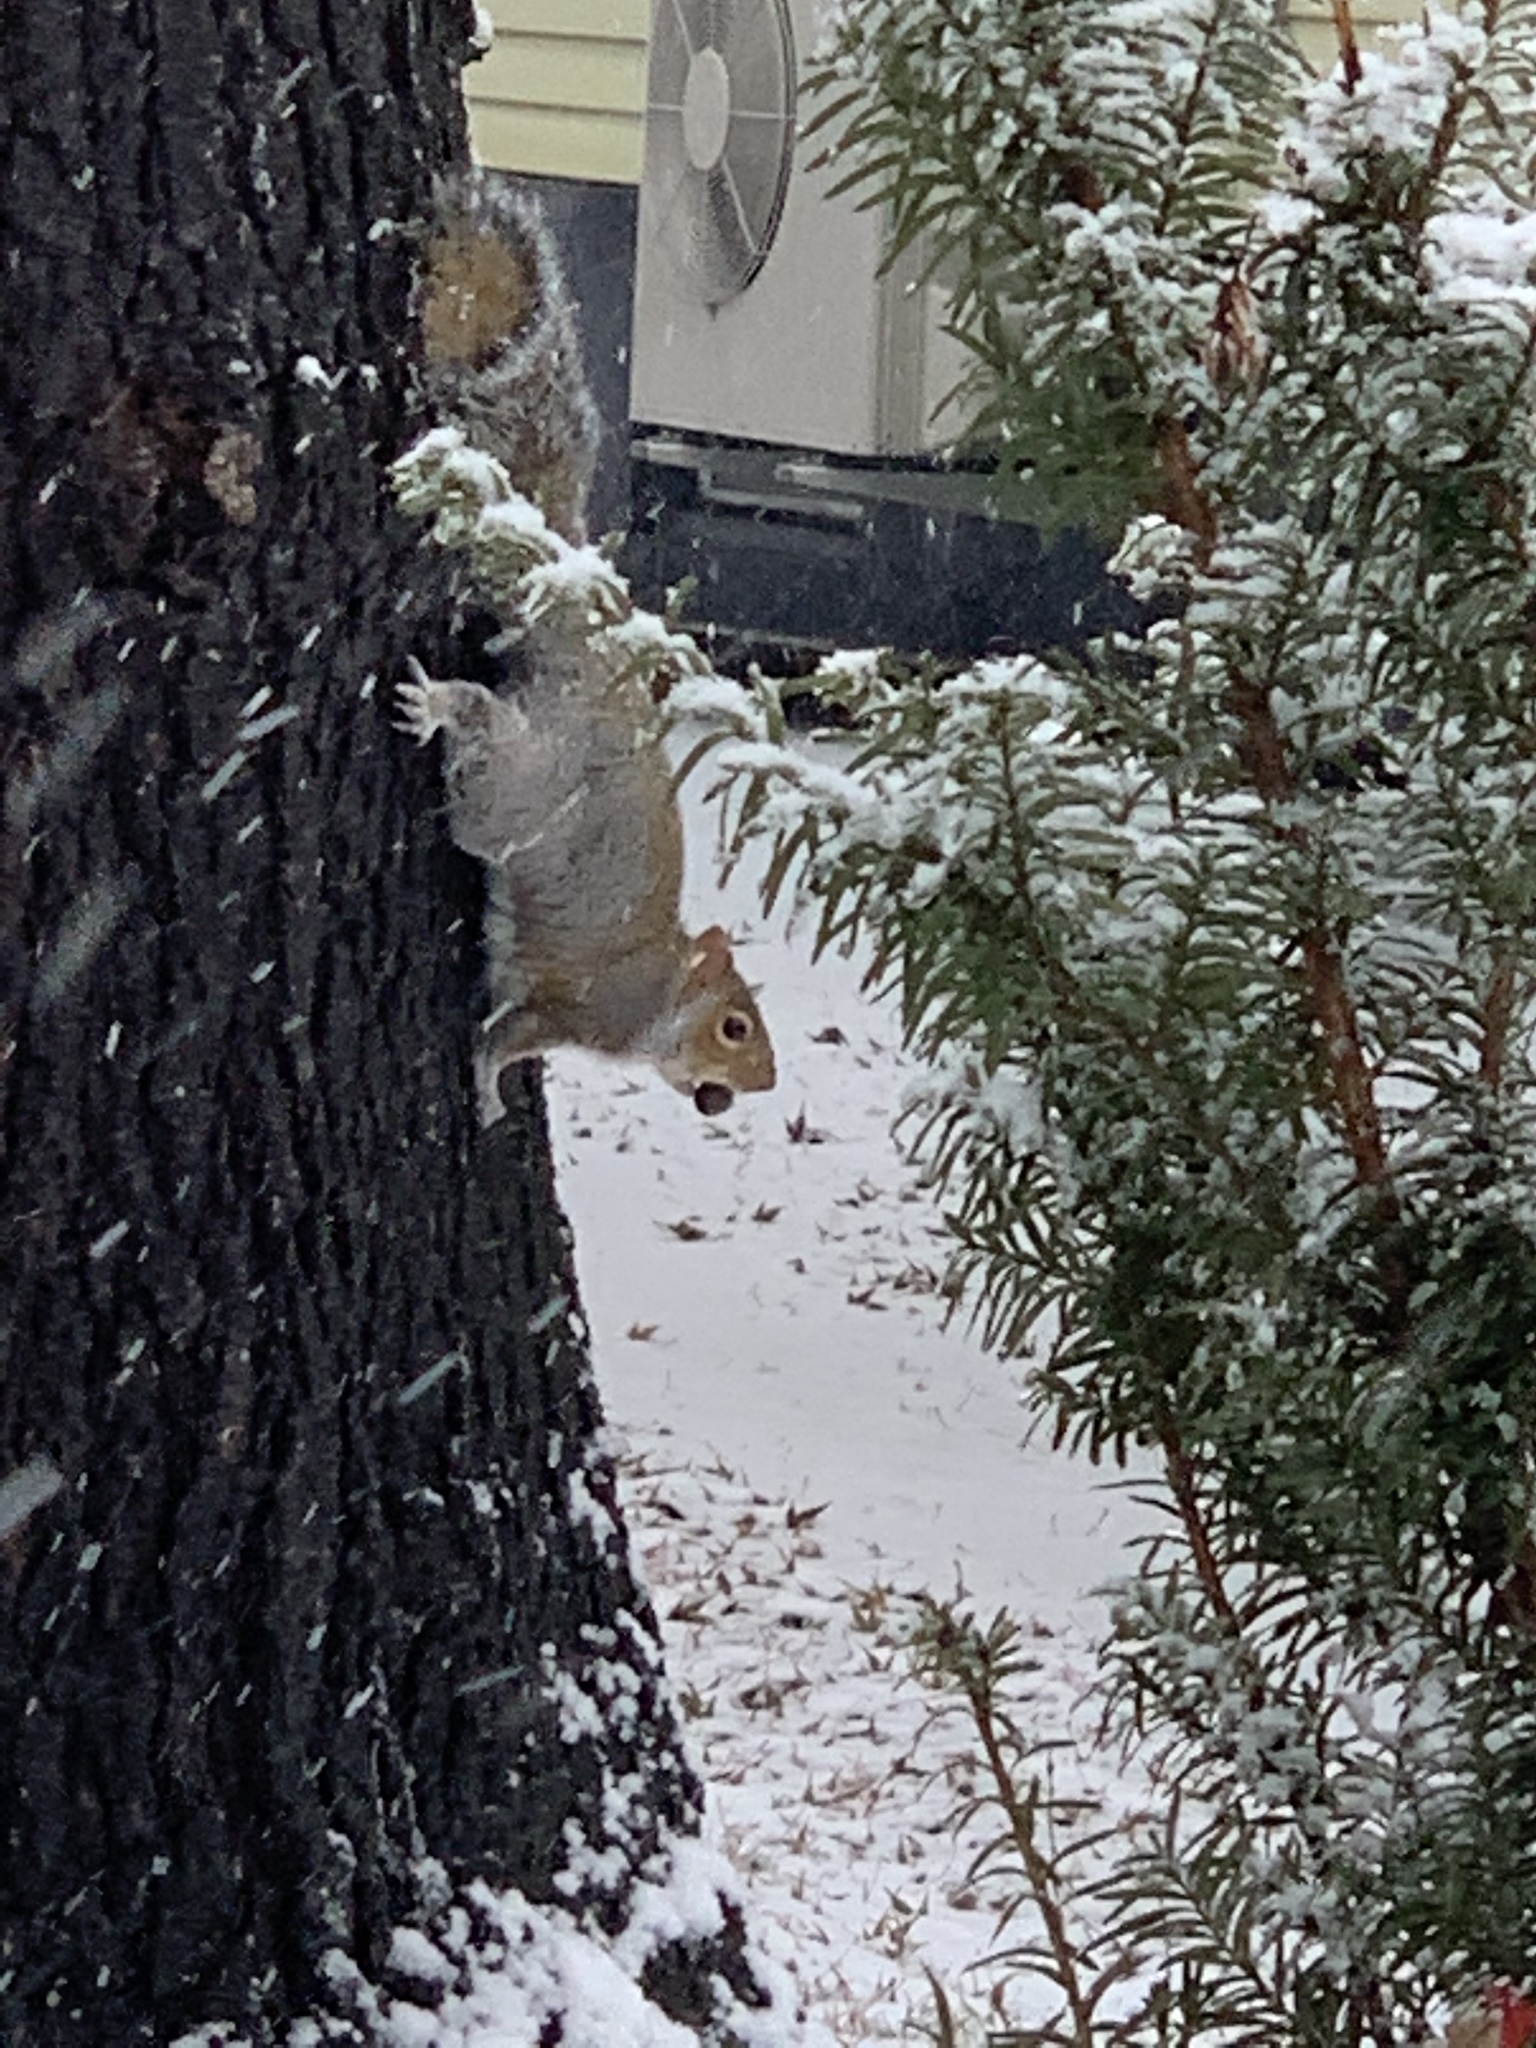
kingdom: Animalia
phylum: Chordata
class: Mammalia
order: Rodentia
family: Sciuridae
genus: Sciurus
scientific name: Sciurus carolinensis
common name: Eastern gray squirrel
